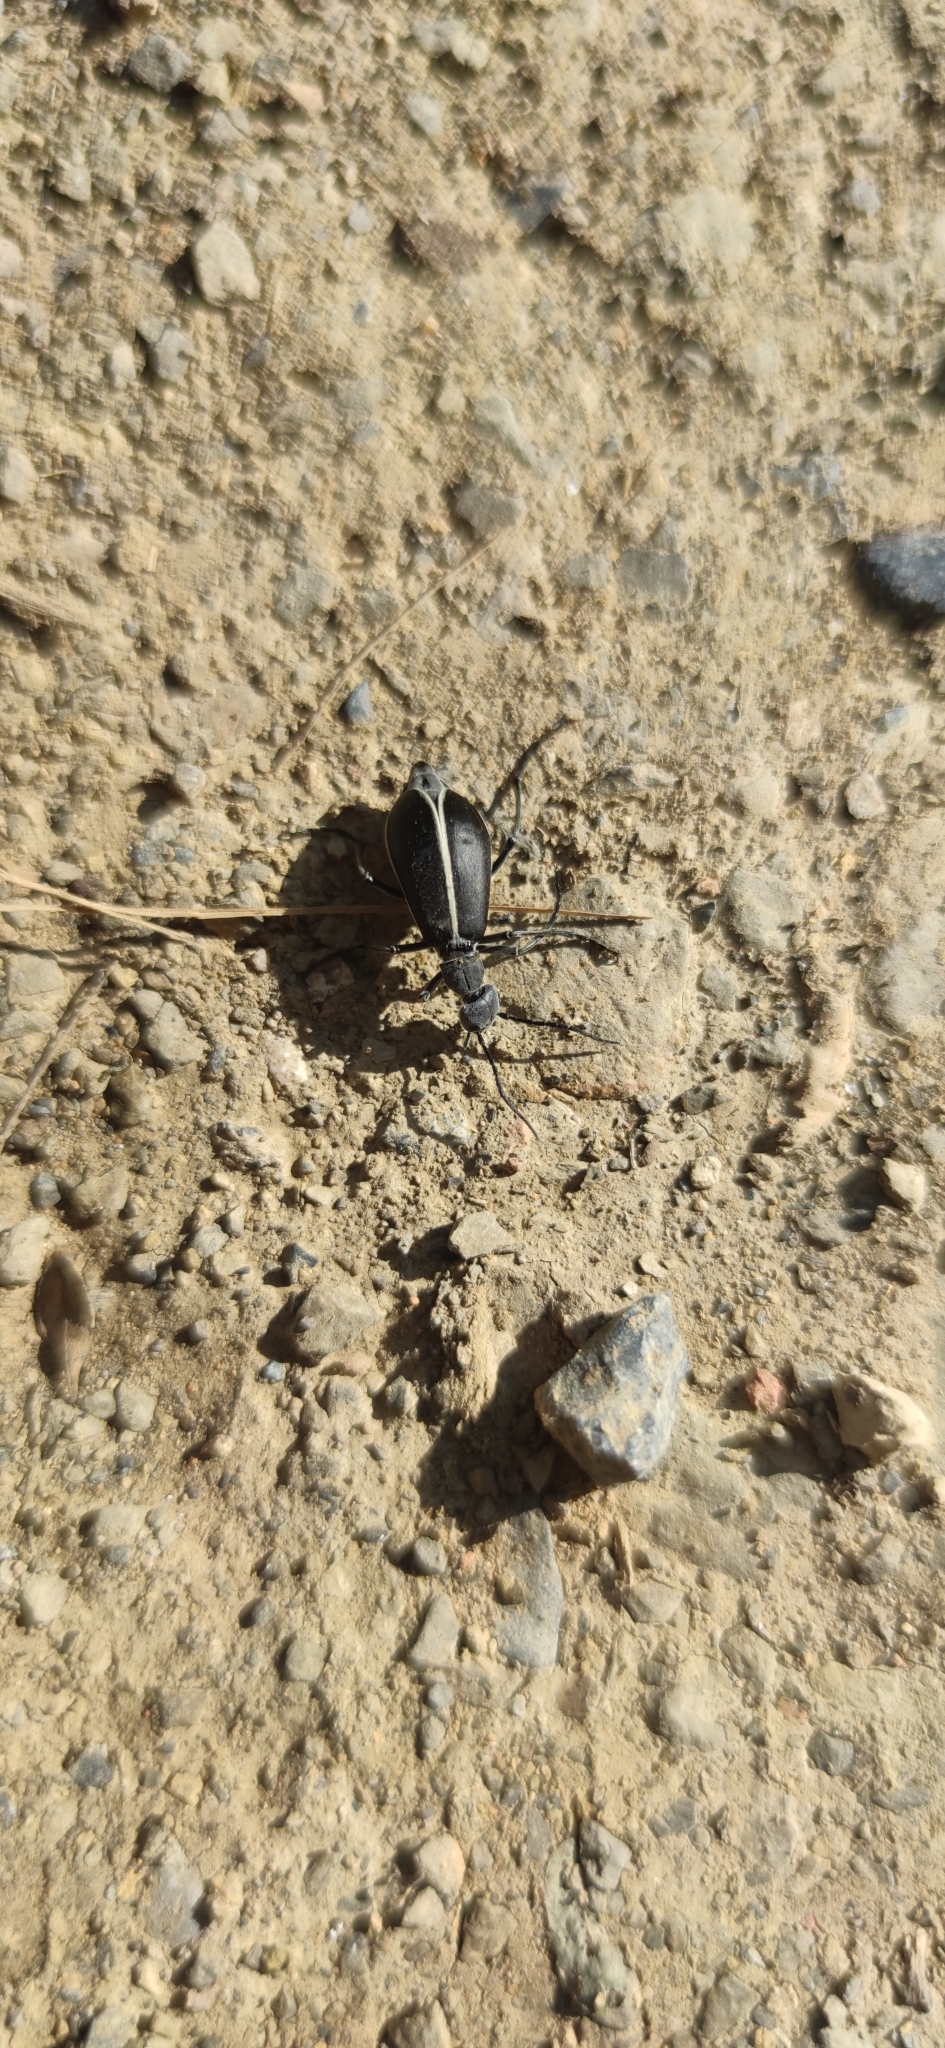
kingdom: Animalia
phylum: Arthropoda
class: Insecta
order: Coleoptera
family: Meloidae
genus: Epicauta
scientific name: Epicauta subatra
